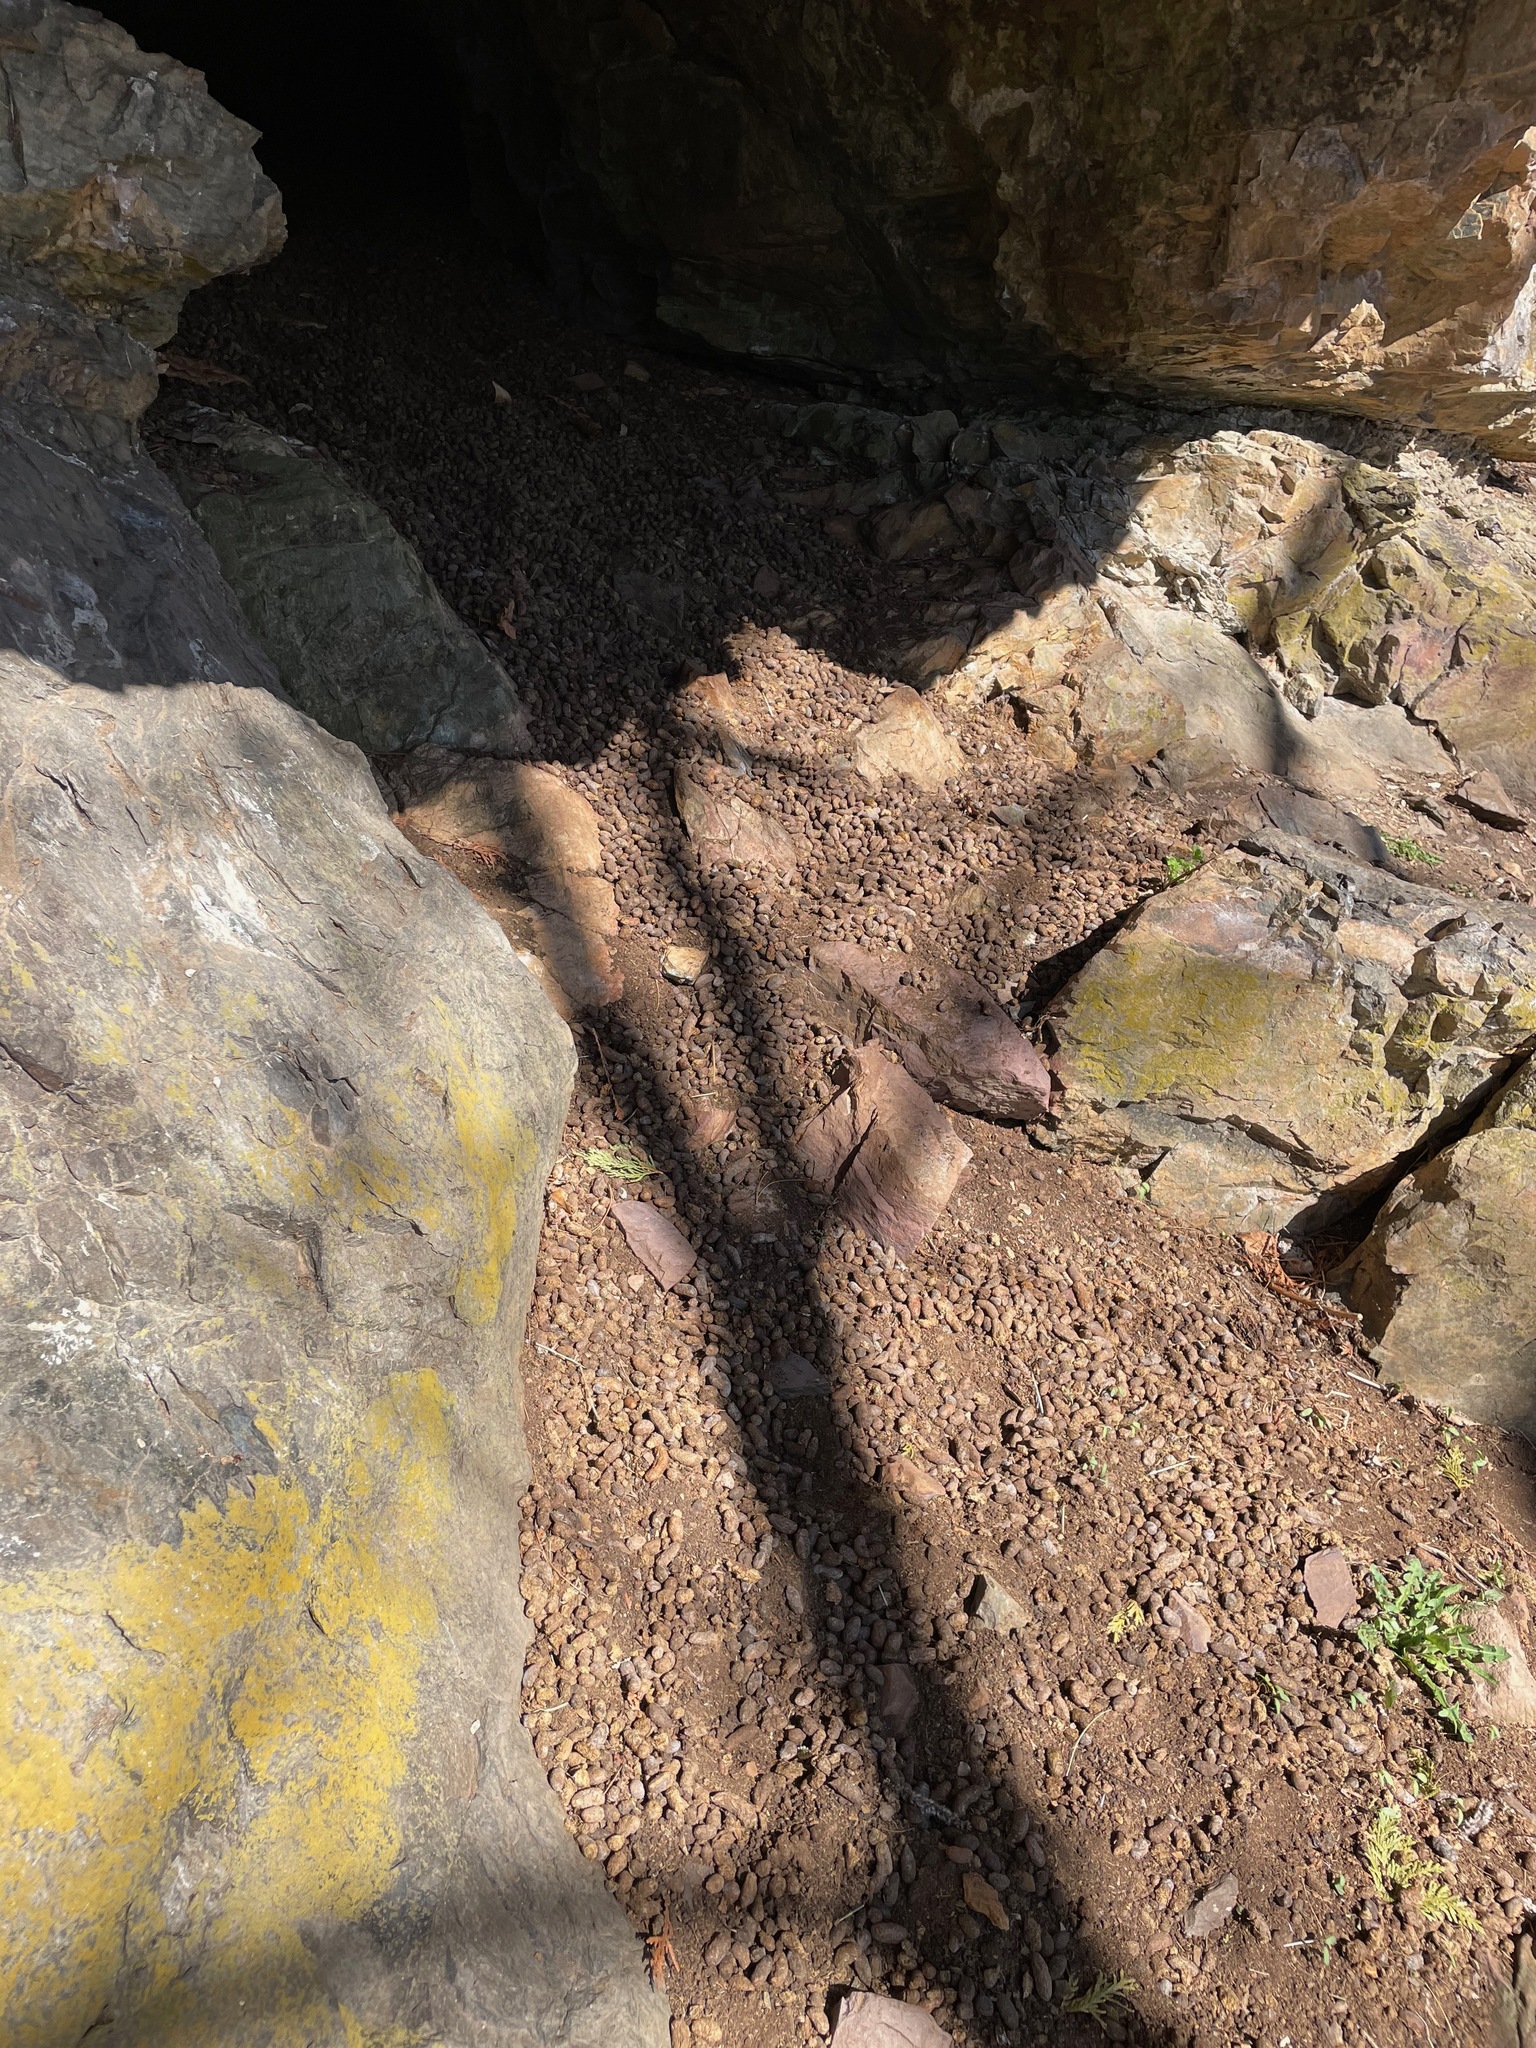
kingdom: Animalia
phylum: Chordata
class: Mammalia
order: Rodentia
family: Erethizontidae
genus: Erethizon
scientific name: Erethizon dorsatus
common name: North american porcupine
